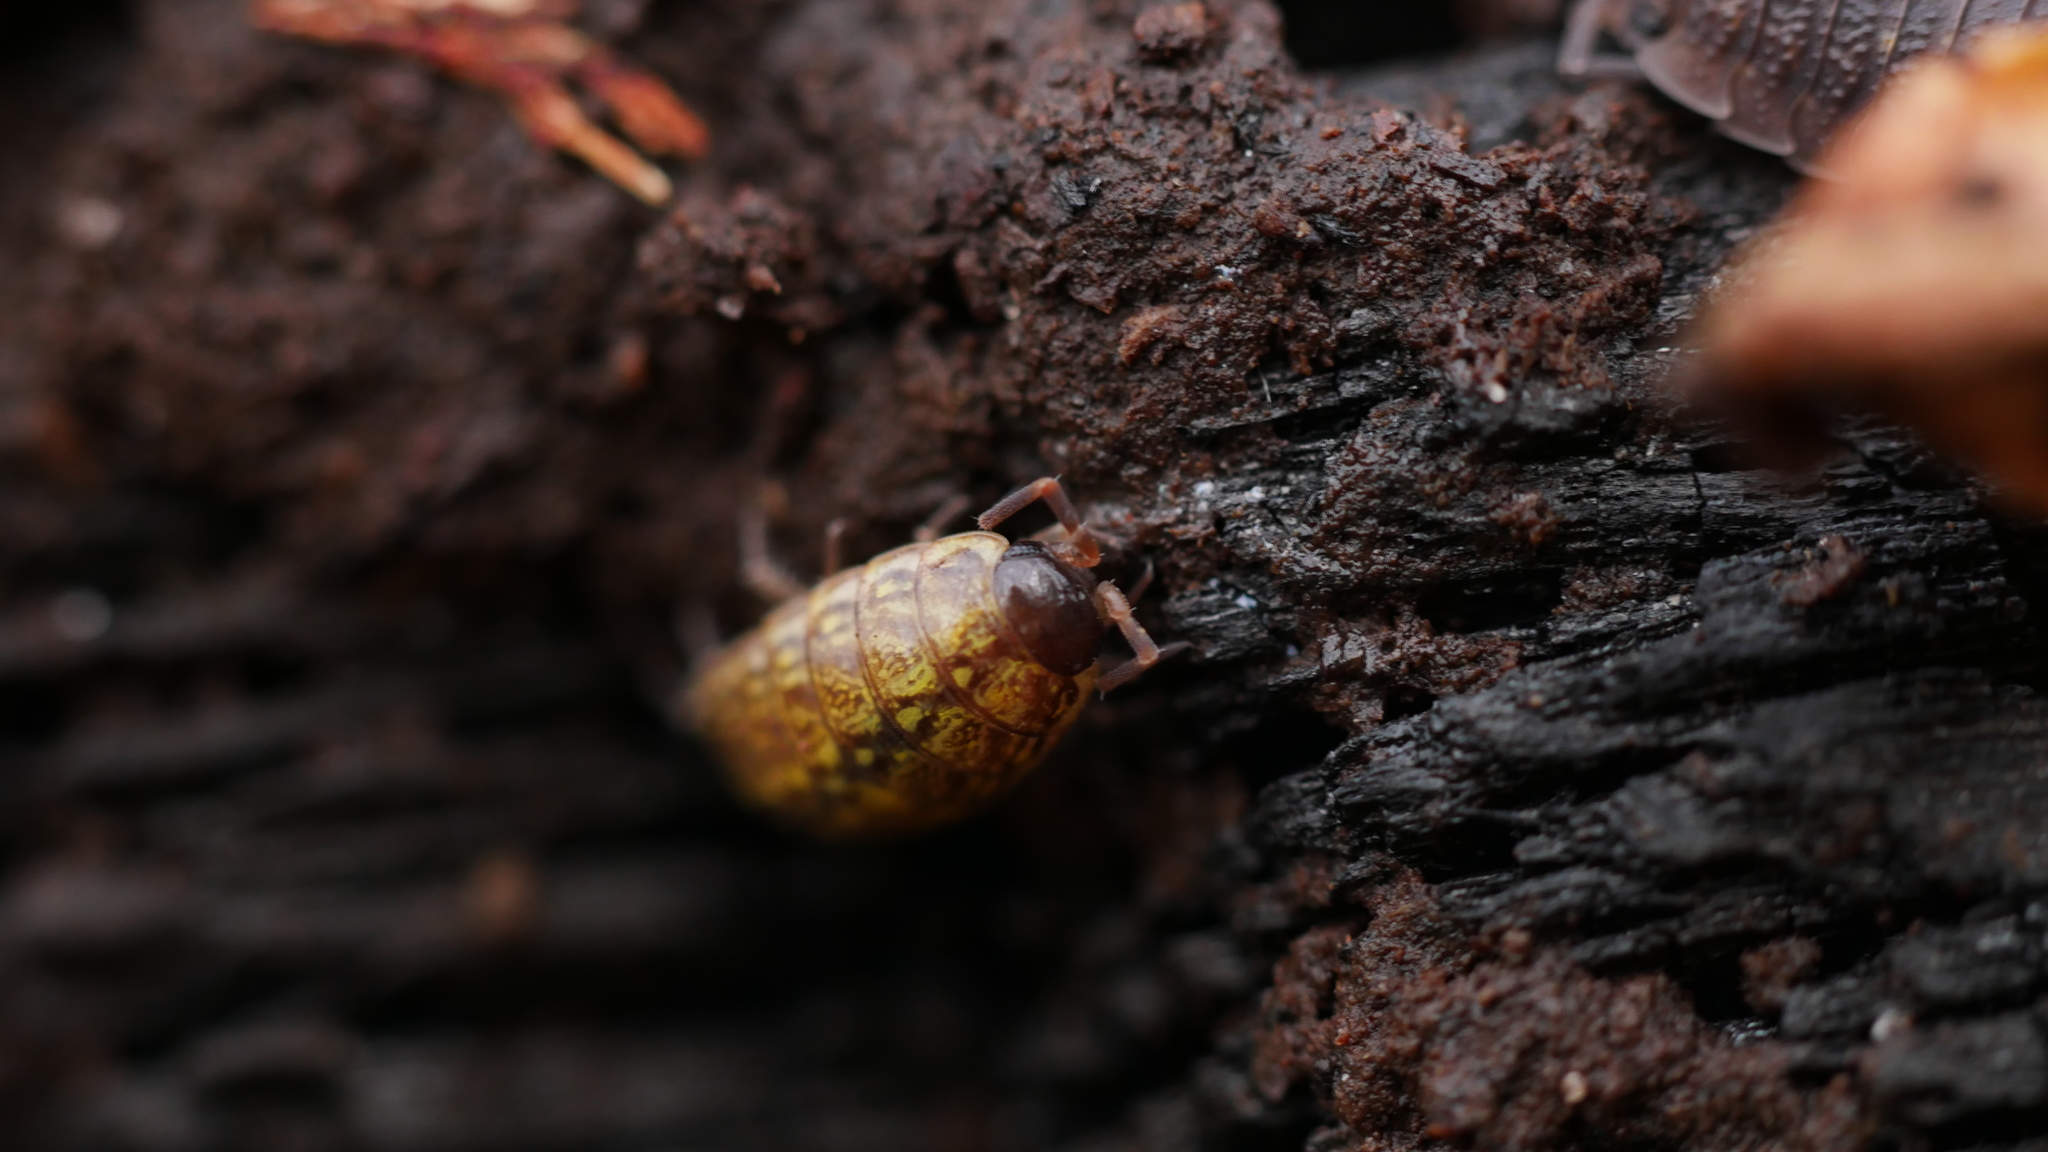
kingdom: Animalia
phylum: Arthropoda
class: Malacostraca
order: Isopoda
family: Philosciidae
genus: Philoscia
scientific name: Philoscia muscorum
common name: Common striped woodlouse
